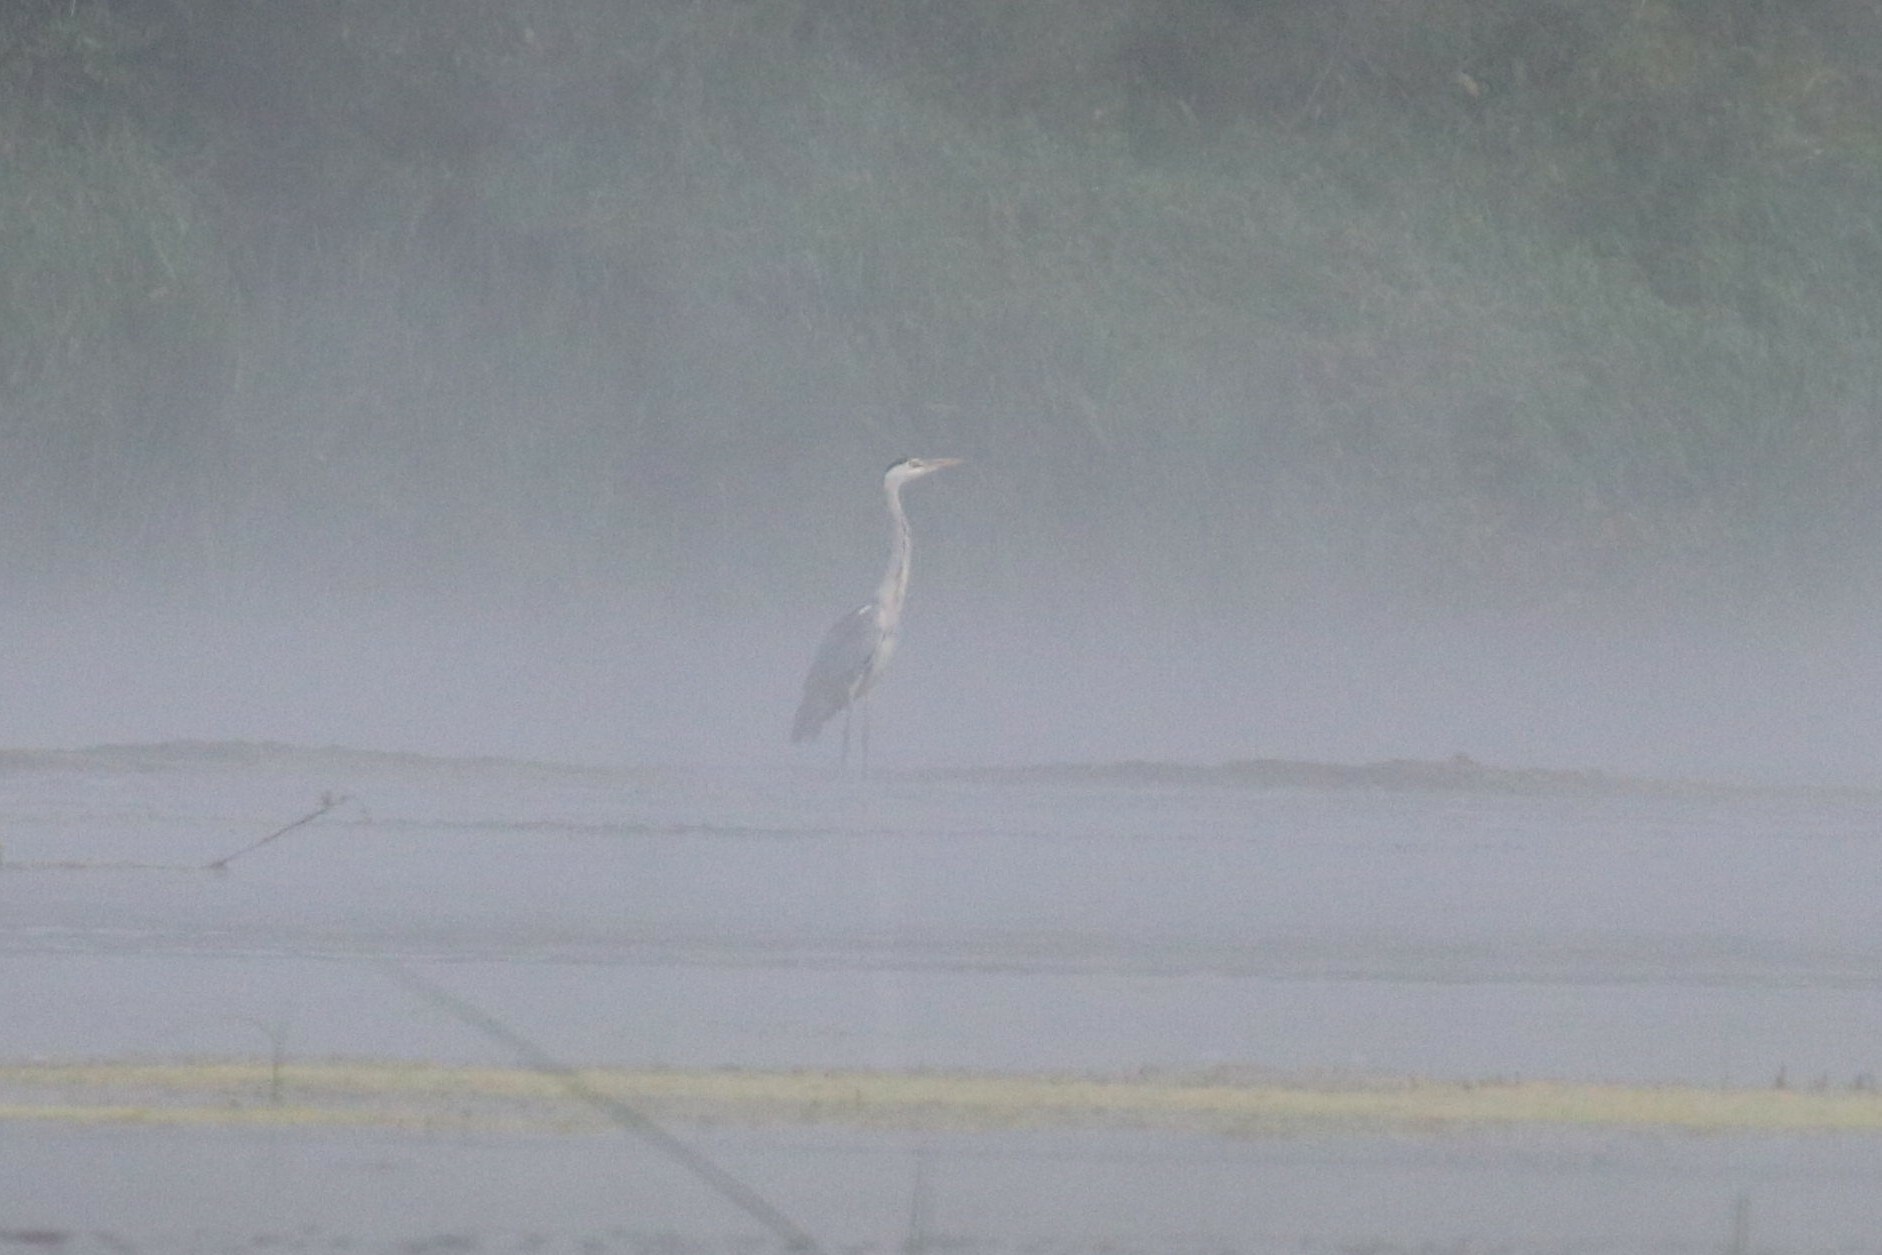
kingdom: Animalia
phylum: Chordata
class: Aves
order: Pelecaniformes
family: Ardeidae
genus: Ardea
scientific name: Ardea cinerea
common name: Grey heron
